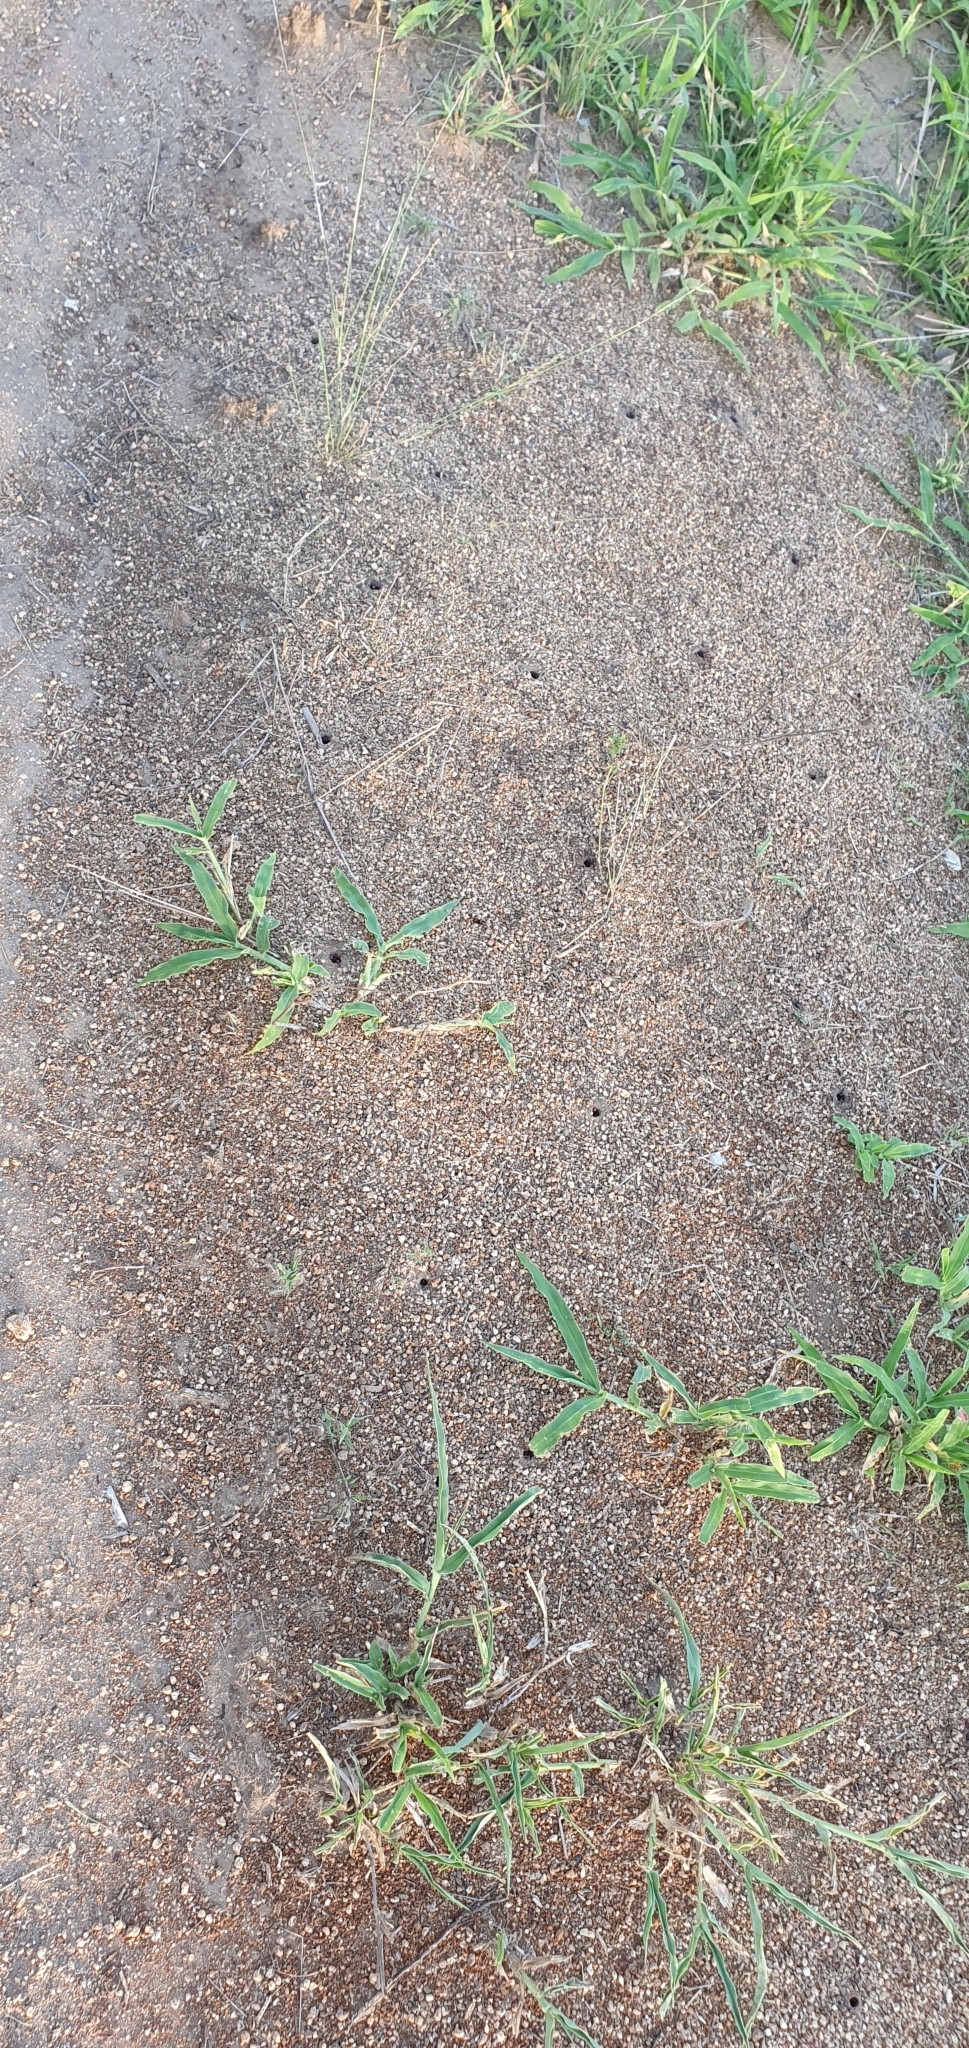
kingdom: Animalia
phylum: Arthropoda
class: Insecta
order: Hymenoptera
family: Formicidae
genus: Iridomyrmex
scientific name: Iridomyrmex purpureus
